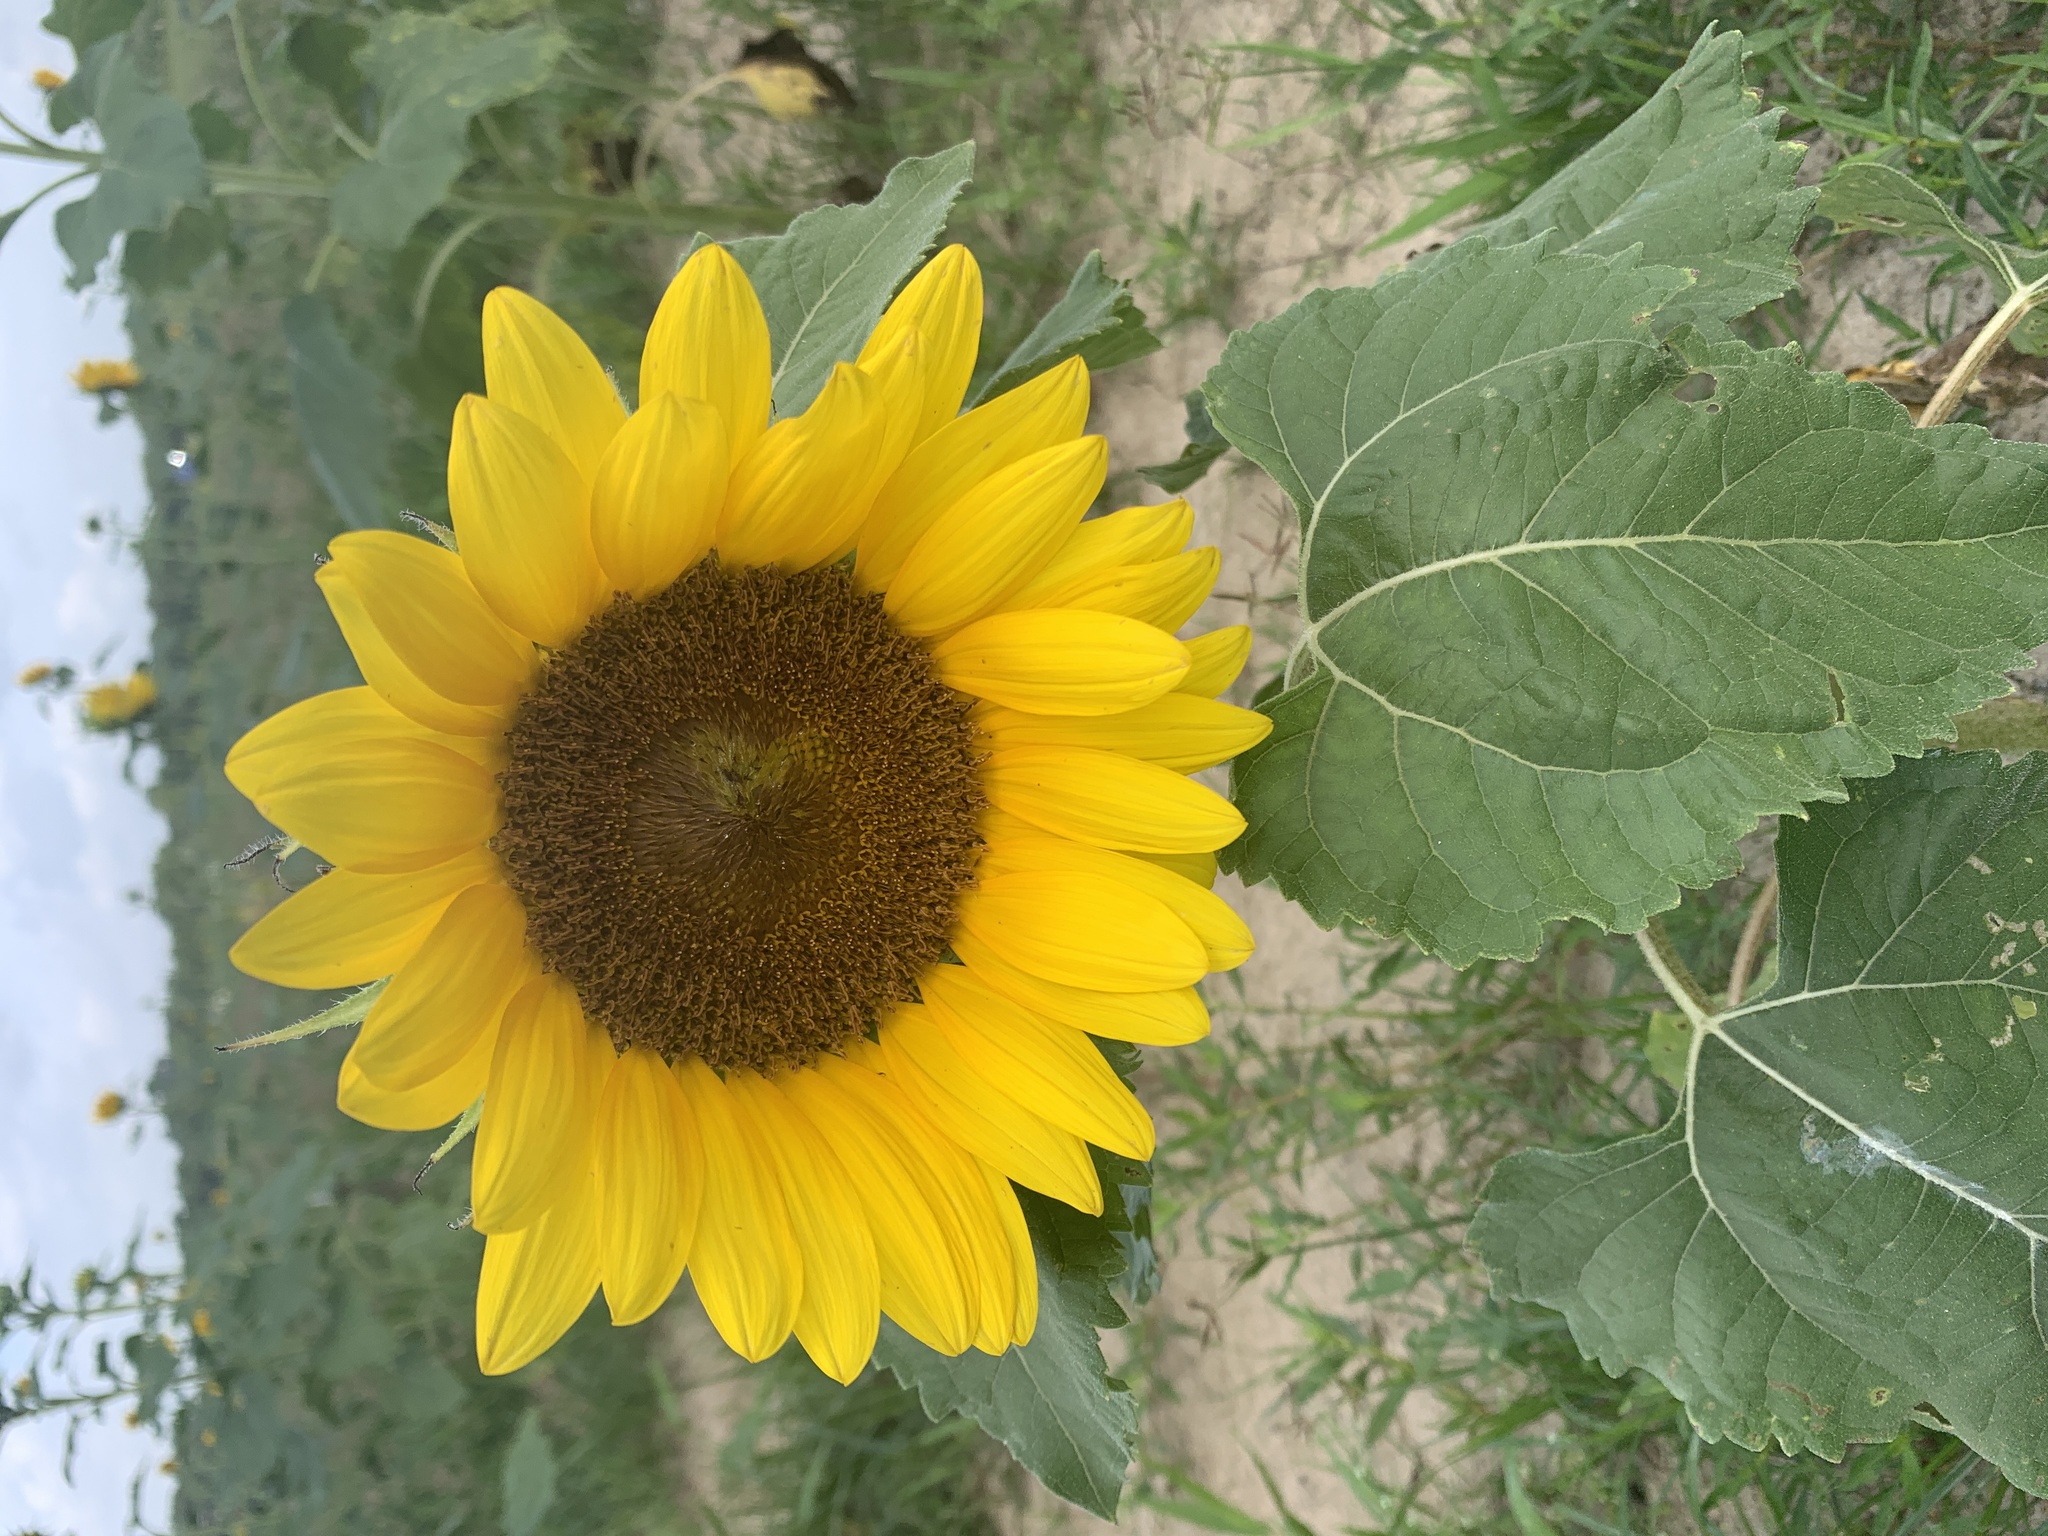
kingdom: Plantae
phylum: Tracheophyta
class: Magnoliopsida
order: Asterales
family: Asteraceae
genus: Helianthus
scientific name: Helianthus annuus
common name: Sunflower
